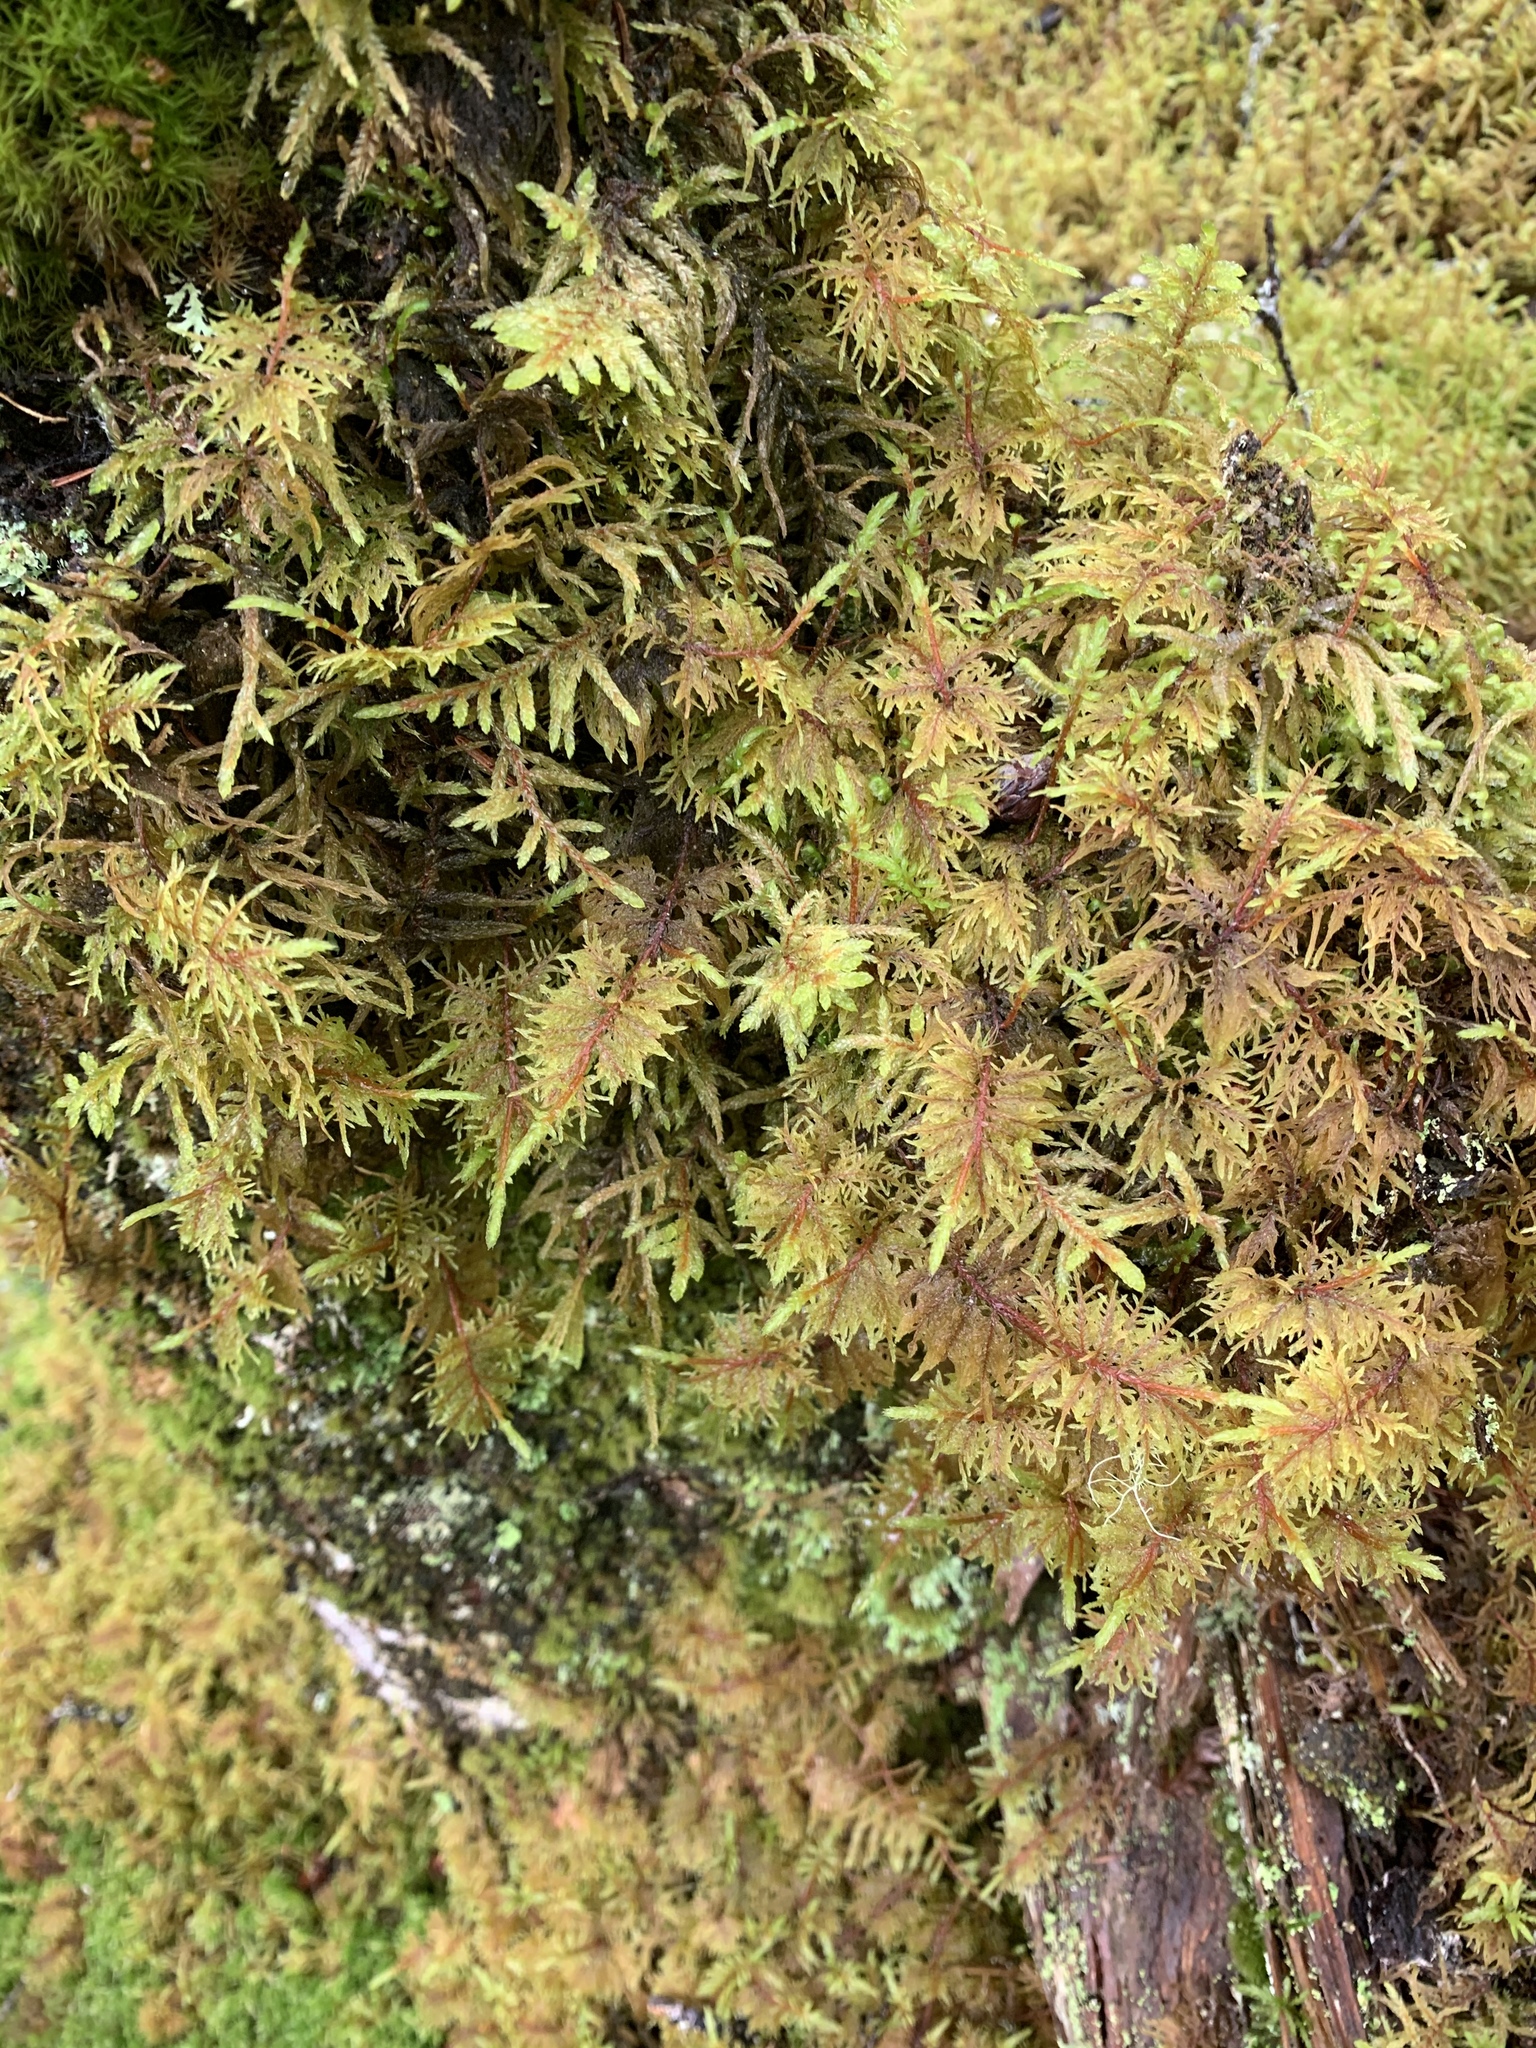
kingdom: Plantae
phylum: Bryophyta
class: Bryopsida
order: Hypnales
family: Hylocomiaceae
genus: Hylocomium
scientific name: Hylocomium splendens
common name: Stairstep moss
